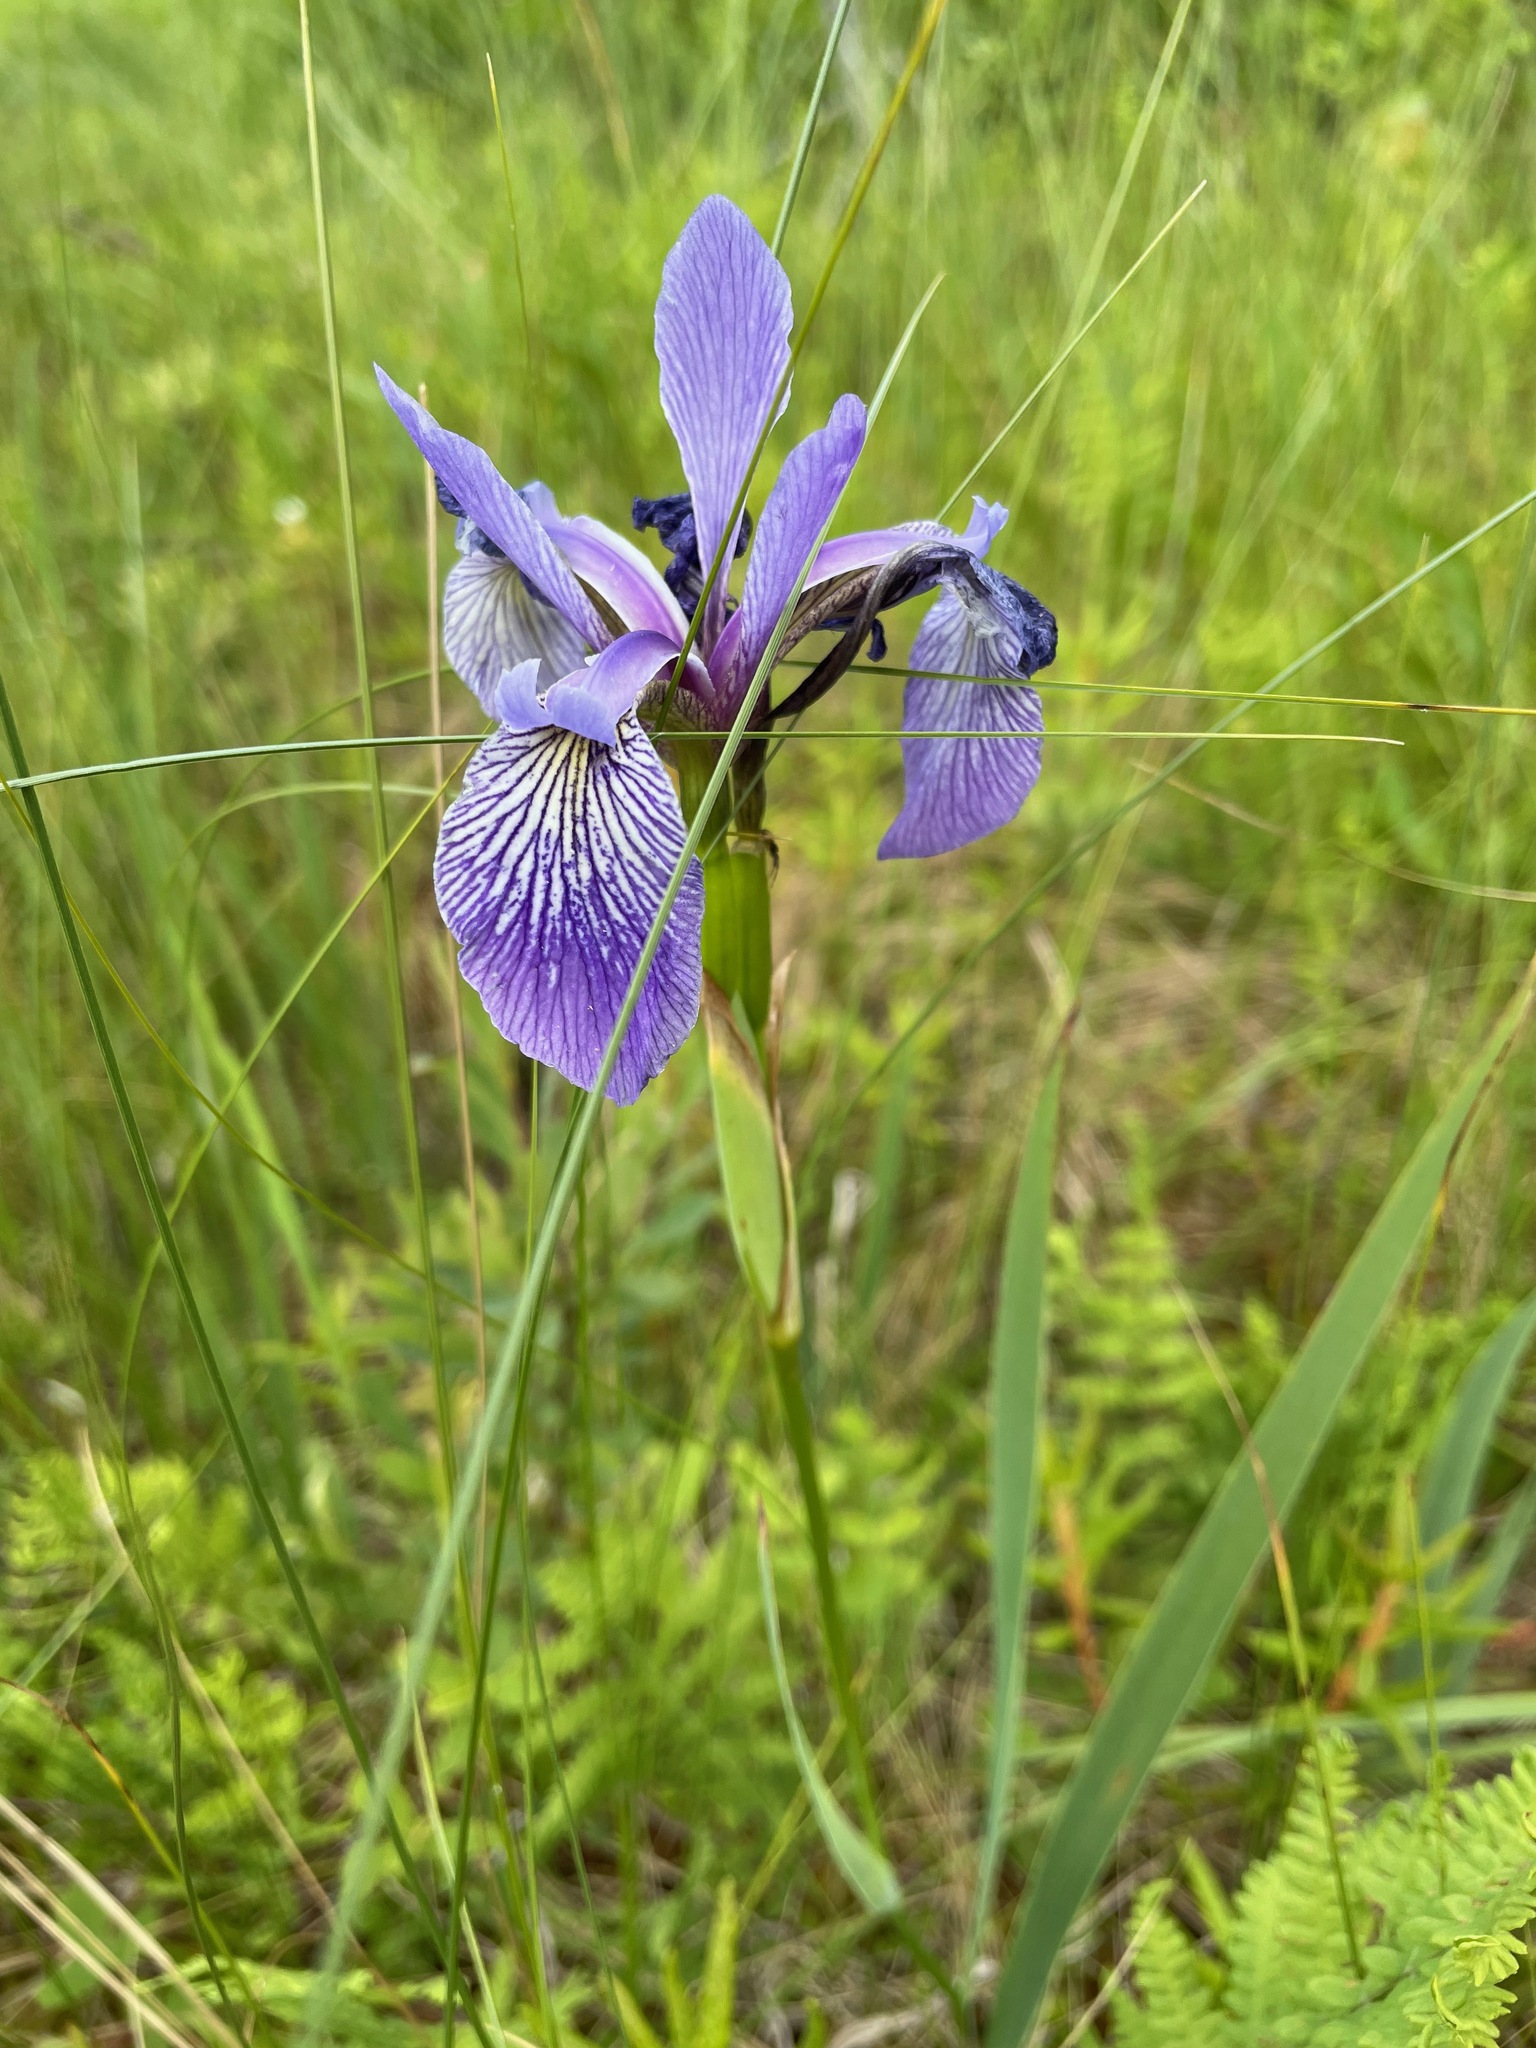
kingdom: Plantae
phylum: Tracheophyta
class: Liliopsida
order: Asparagales
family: Iridaceae
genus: Iris
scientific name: Iris versicolor
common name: Purple iris
